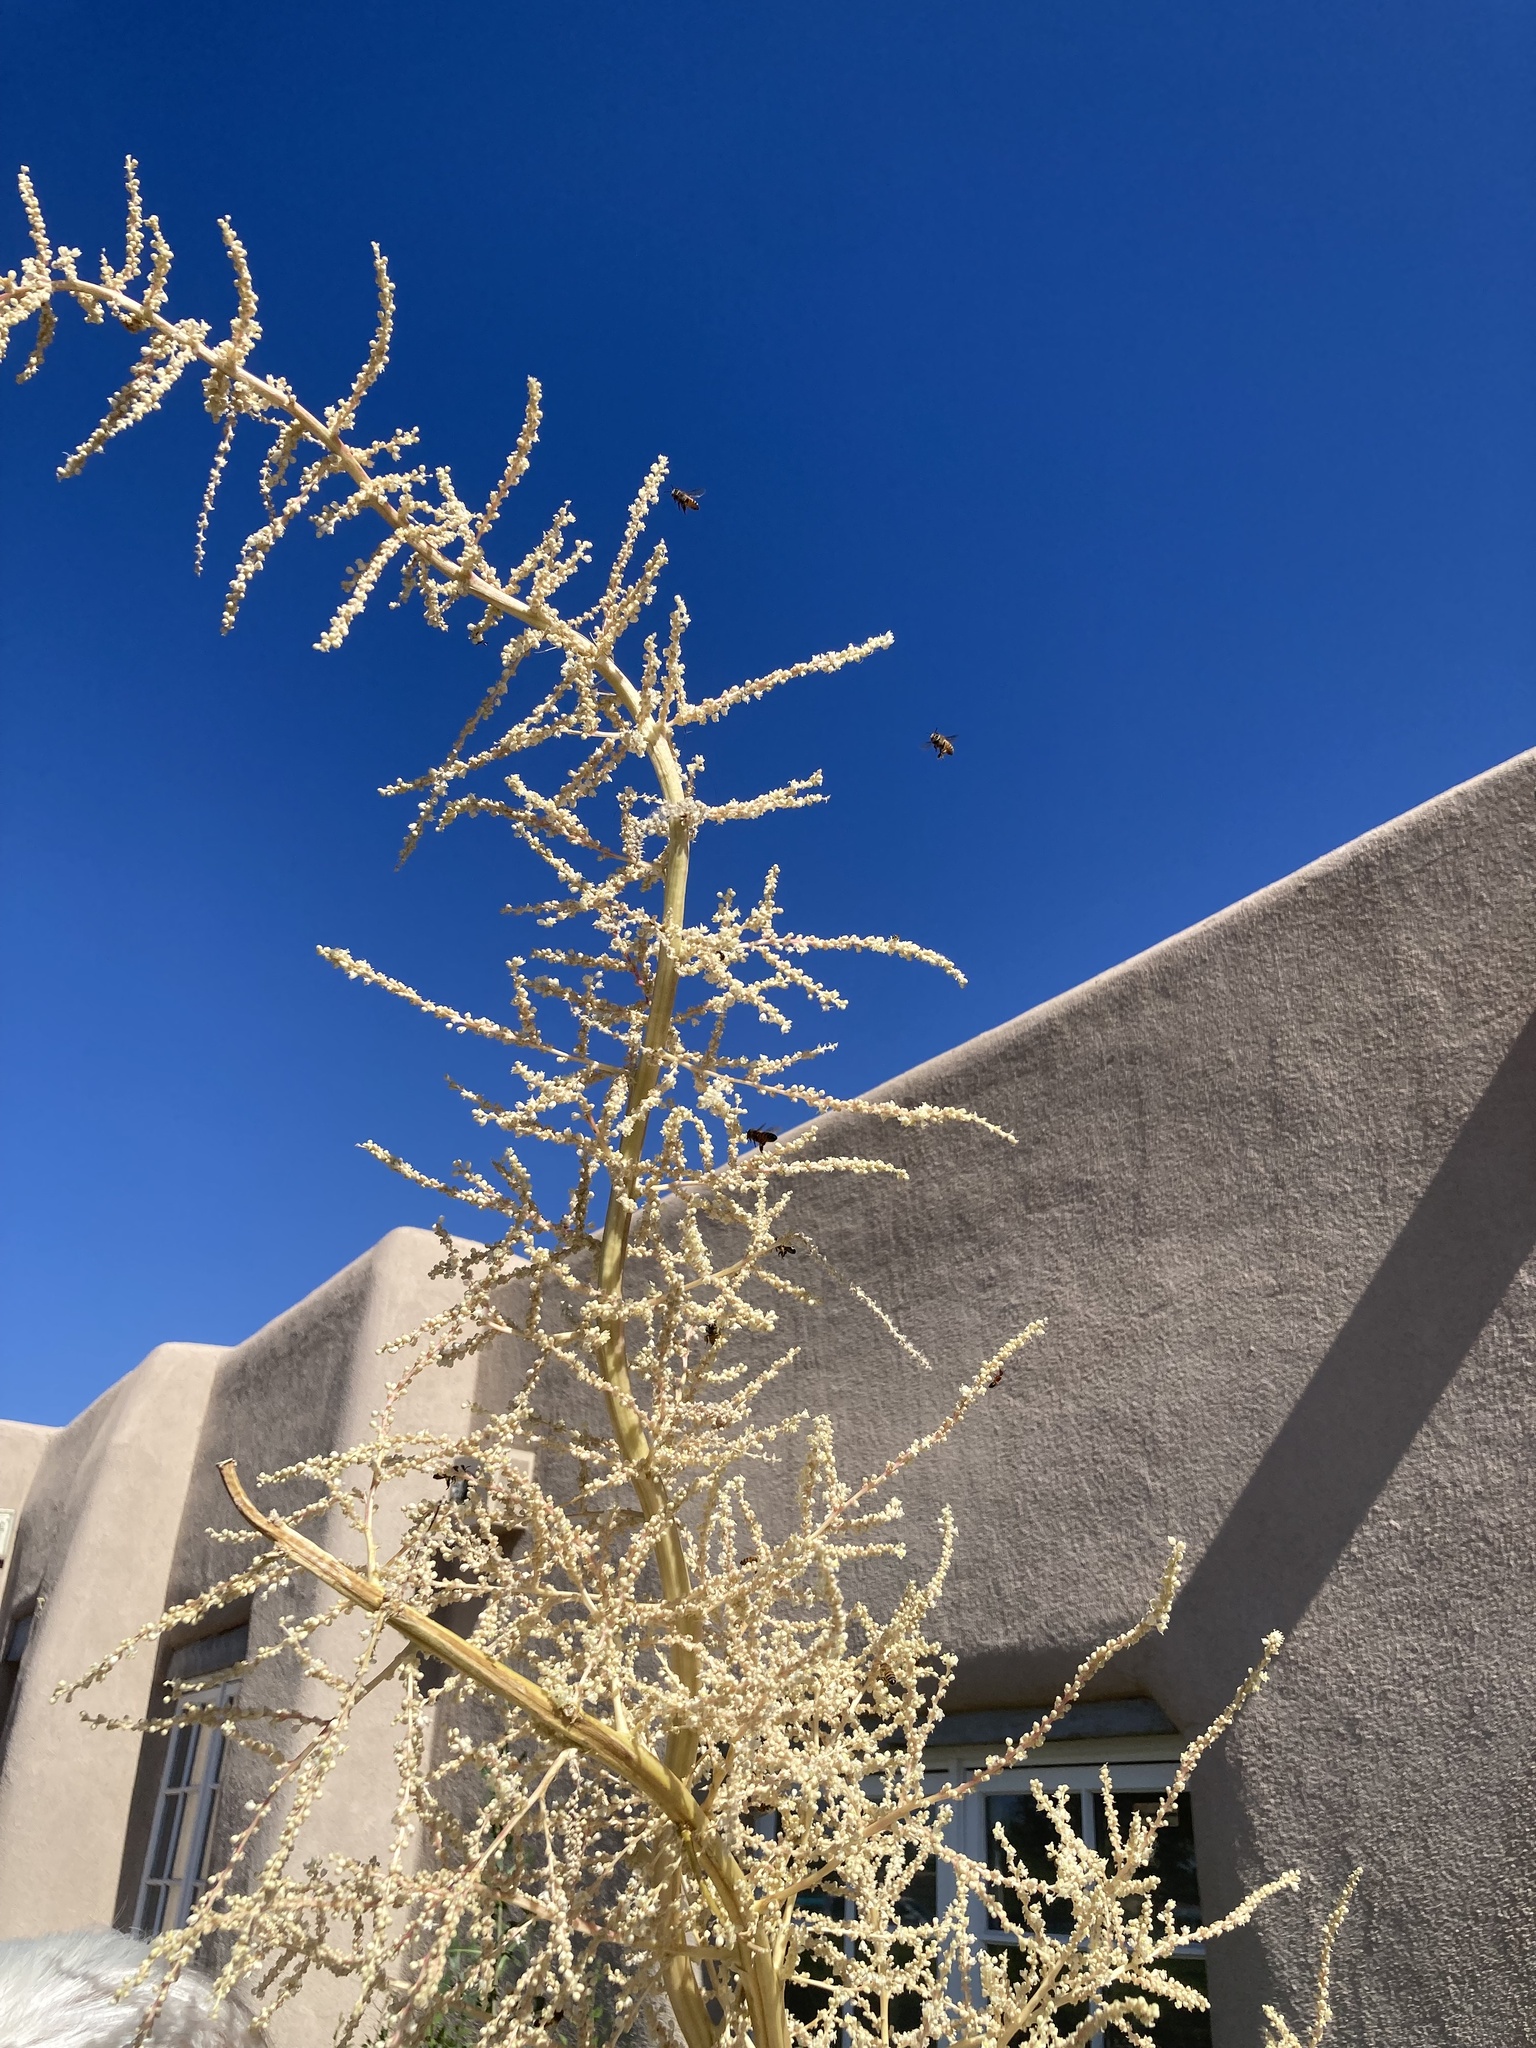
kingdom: Animalia
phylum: Arthropoda
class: Insecta
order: Hymenoptera
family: Apidae
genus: Apis
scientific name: Apis mellifera
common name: Honey bee
